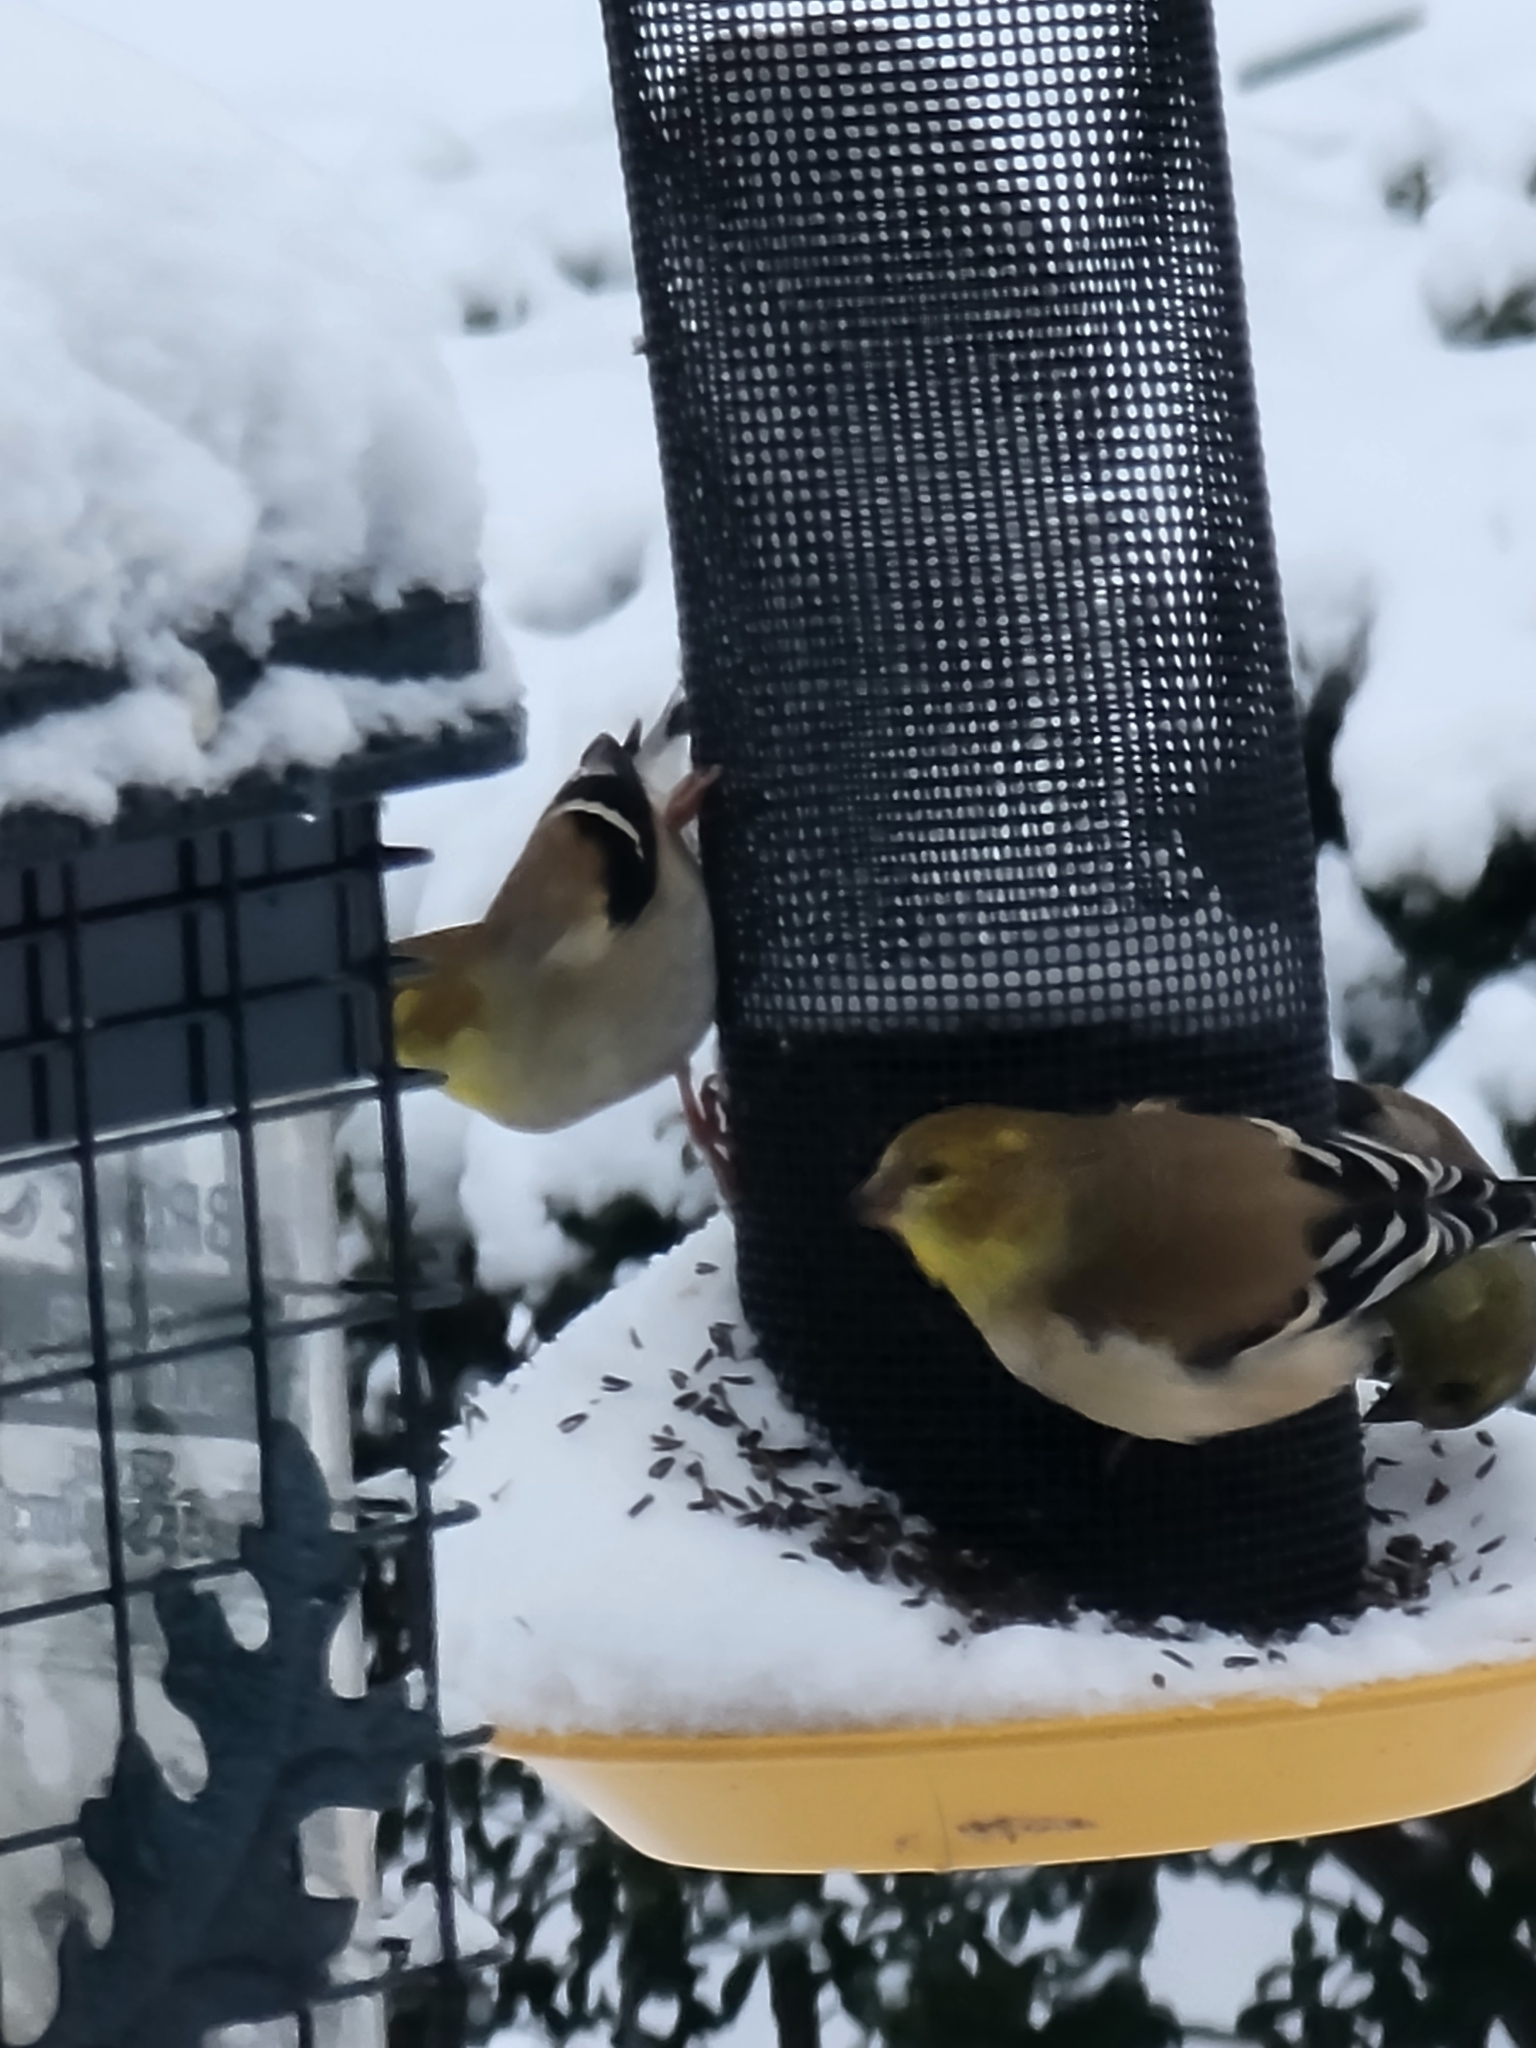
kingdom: Animalia
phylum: Chordata
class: Aves
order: Passeriformes
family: Fringillidae
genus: Spinus
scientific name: Spinus tristis
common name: American goldfinch
